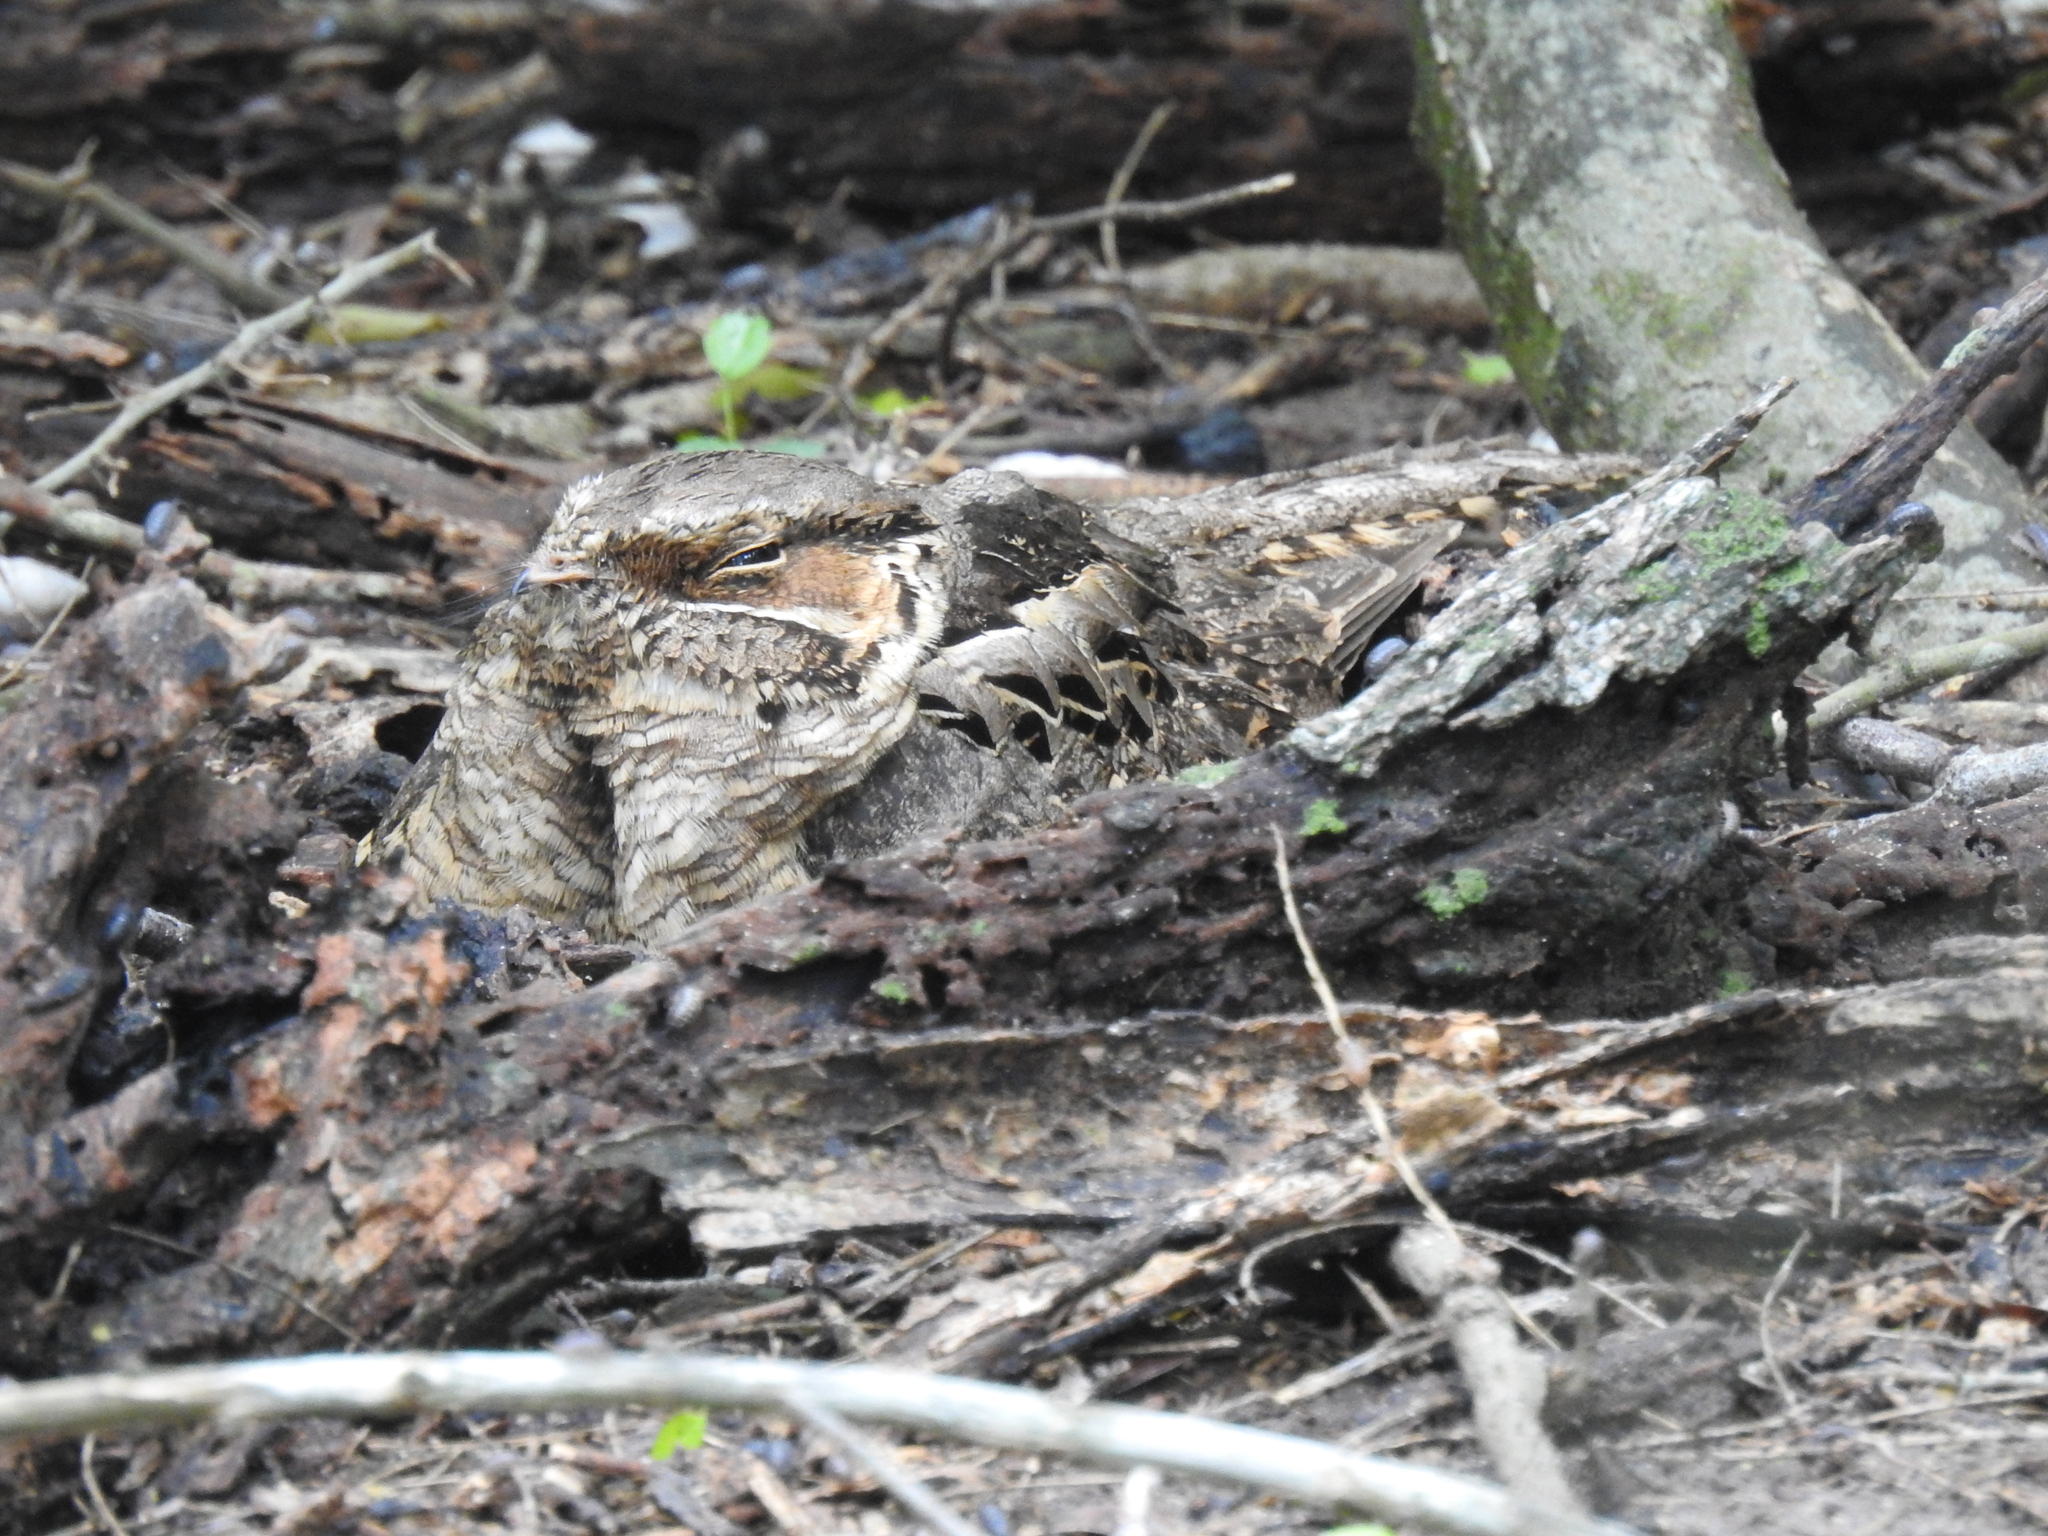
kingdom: Animalia
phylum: Chordata
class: Aves
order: Caprimulgiformes
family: Caprimulgidae
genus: Nyctidromus
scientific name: Nyctidromus albicollis
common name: Pauraque
